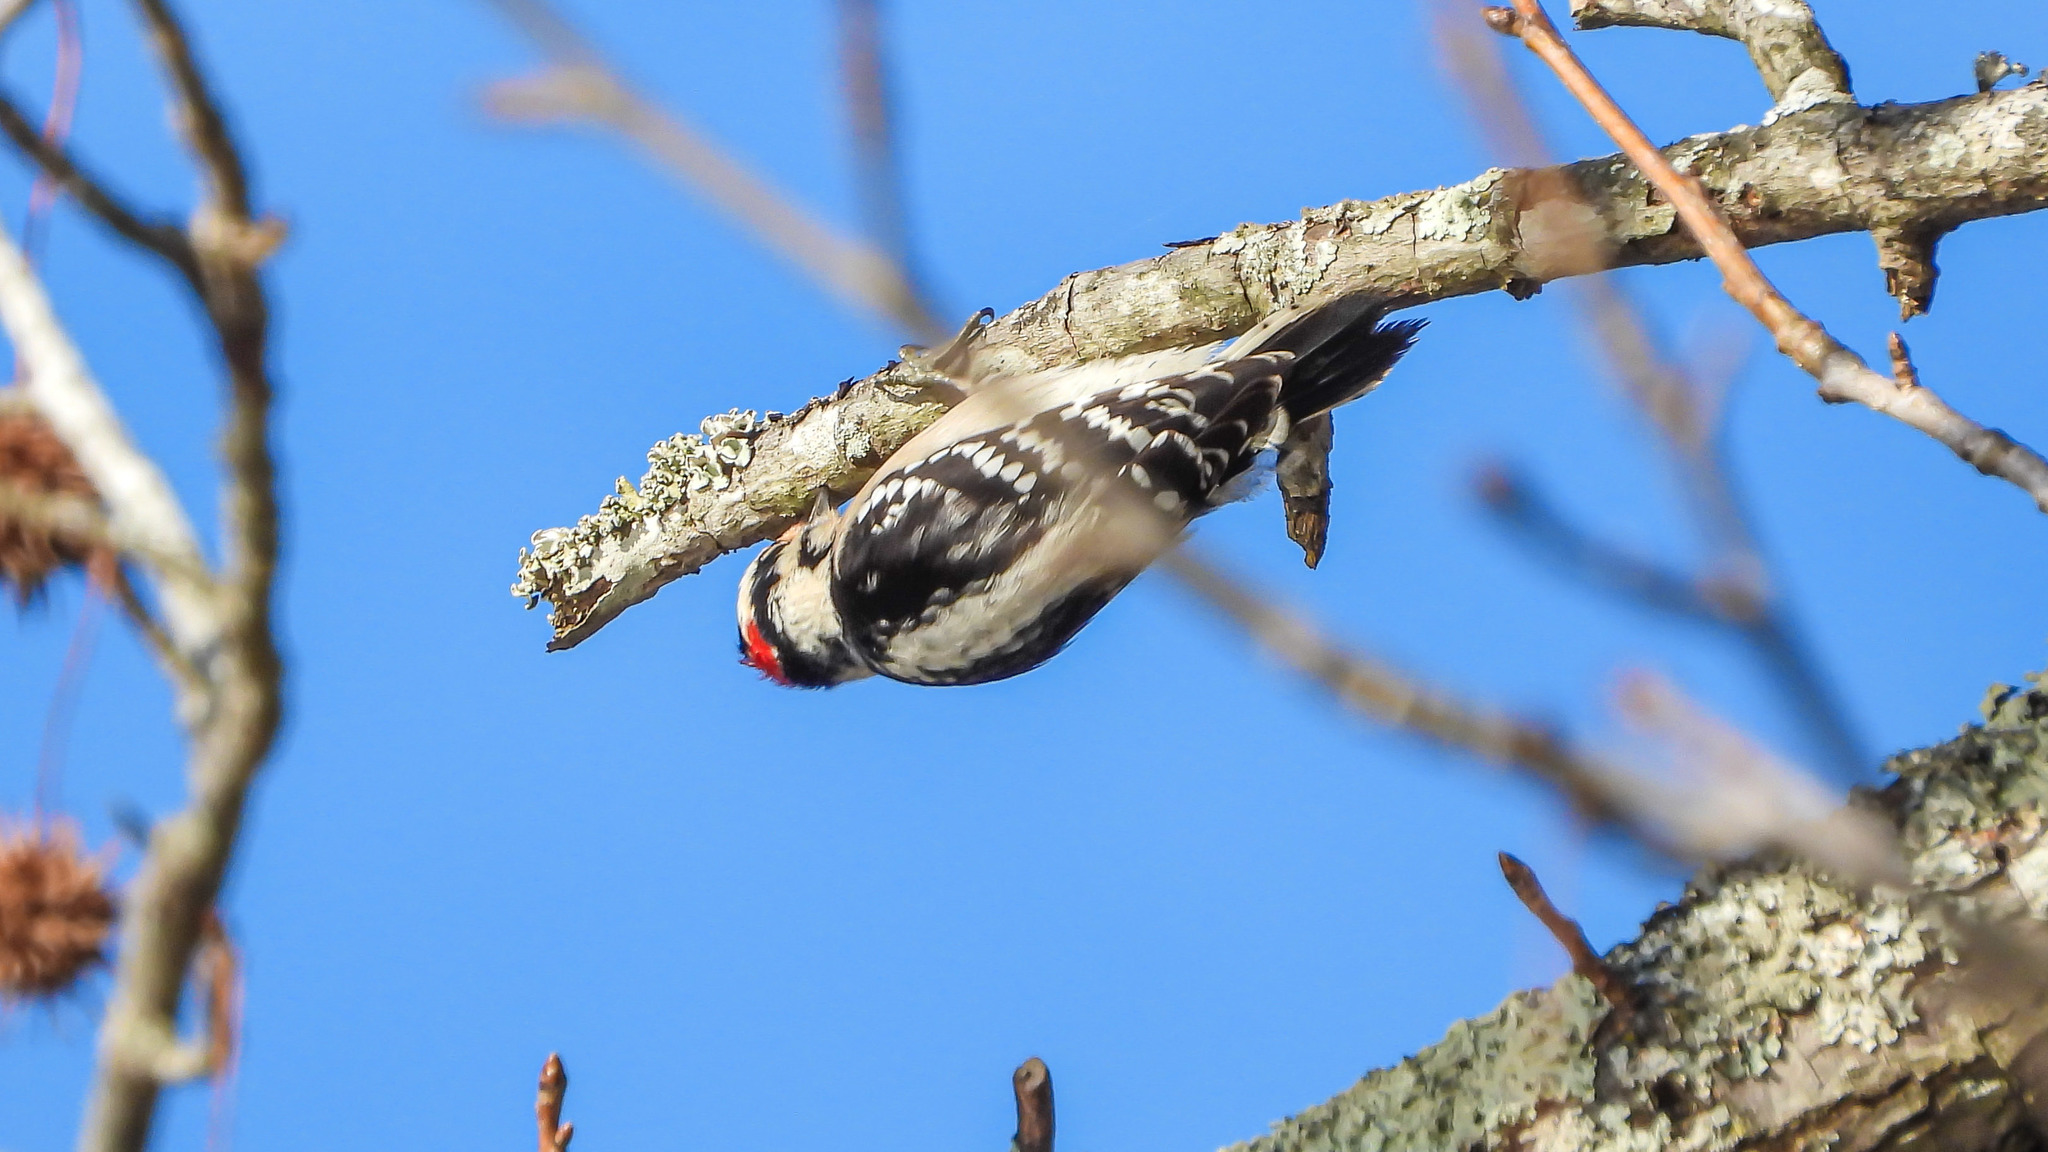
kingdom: Animalia
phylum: Chordata
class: Aves
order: Piciformes
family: Picidae
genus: Dryobates
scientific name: Dryobates pubescens
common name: Downy woodpecker
